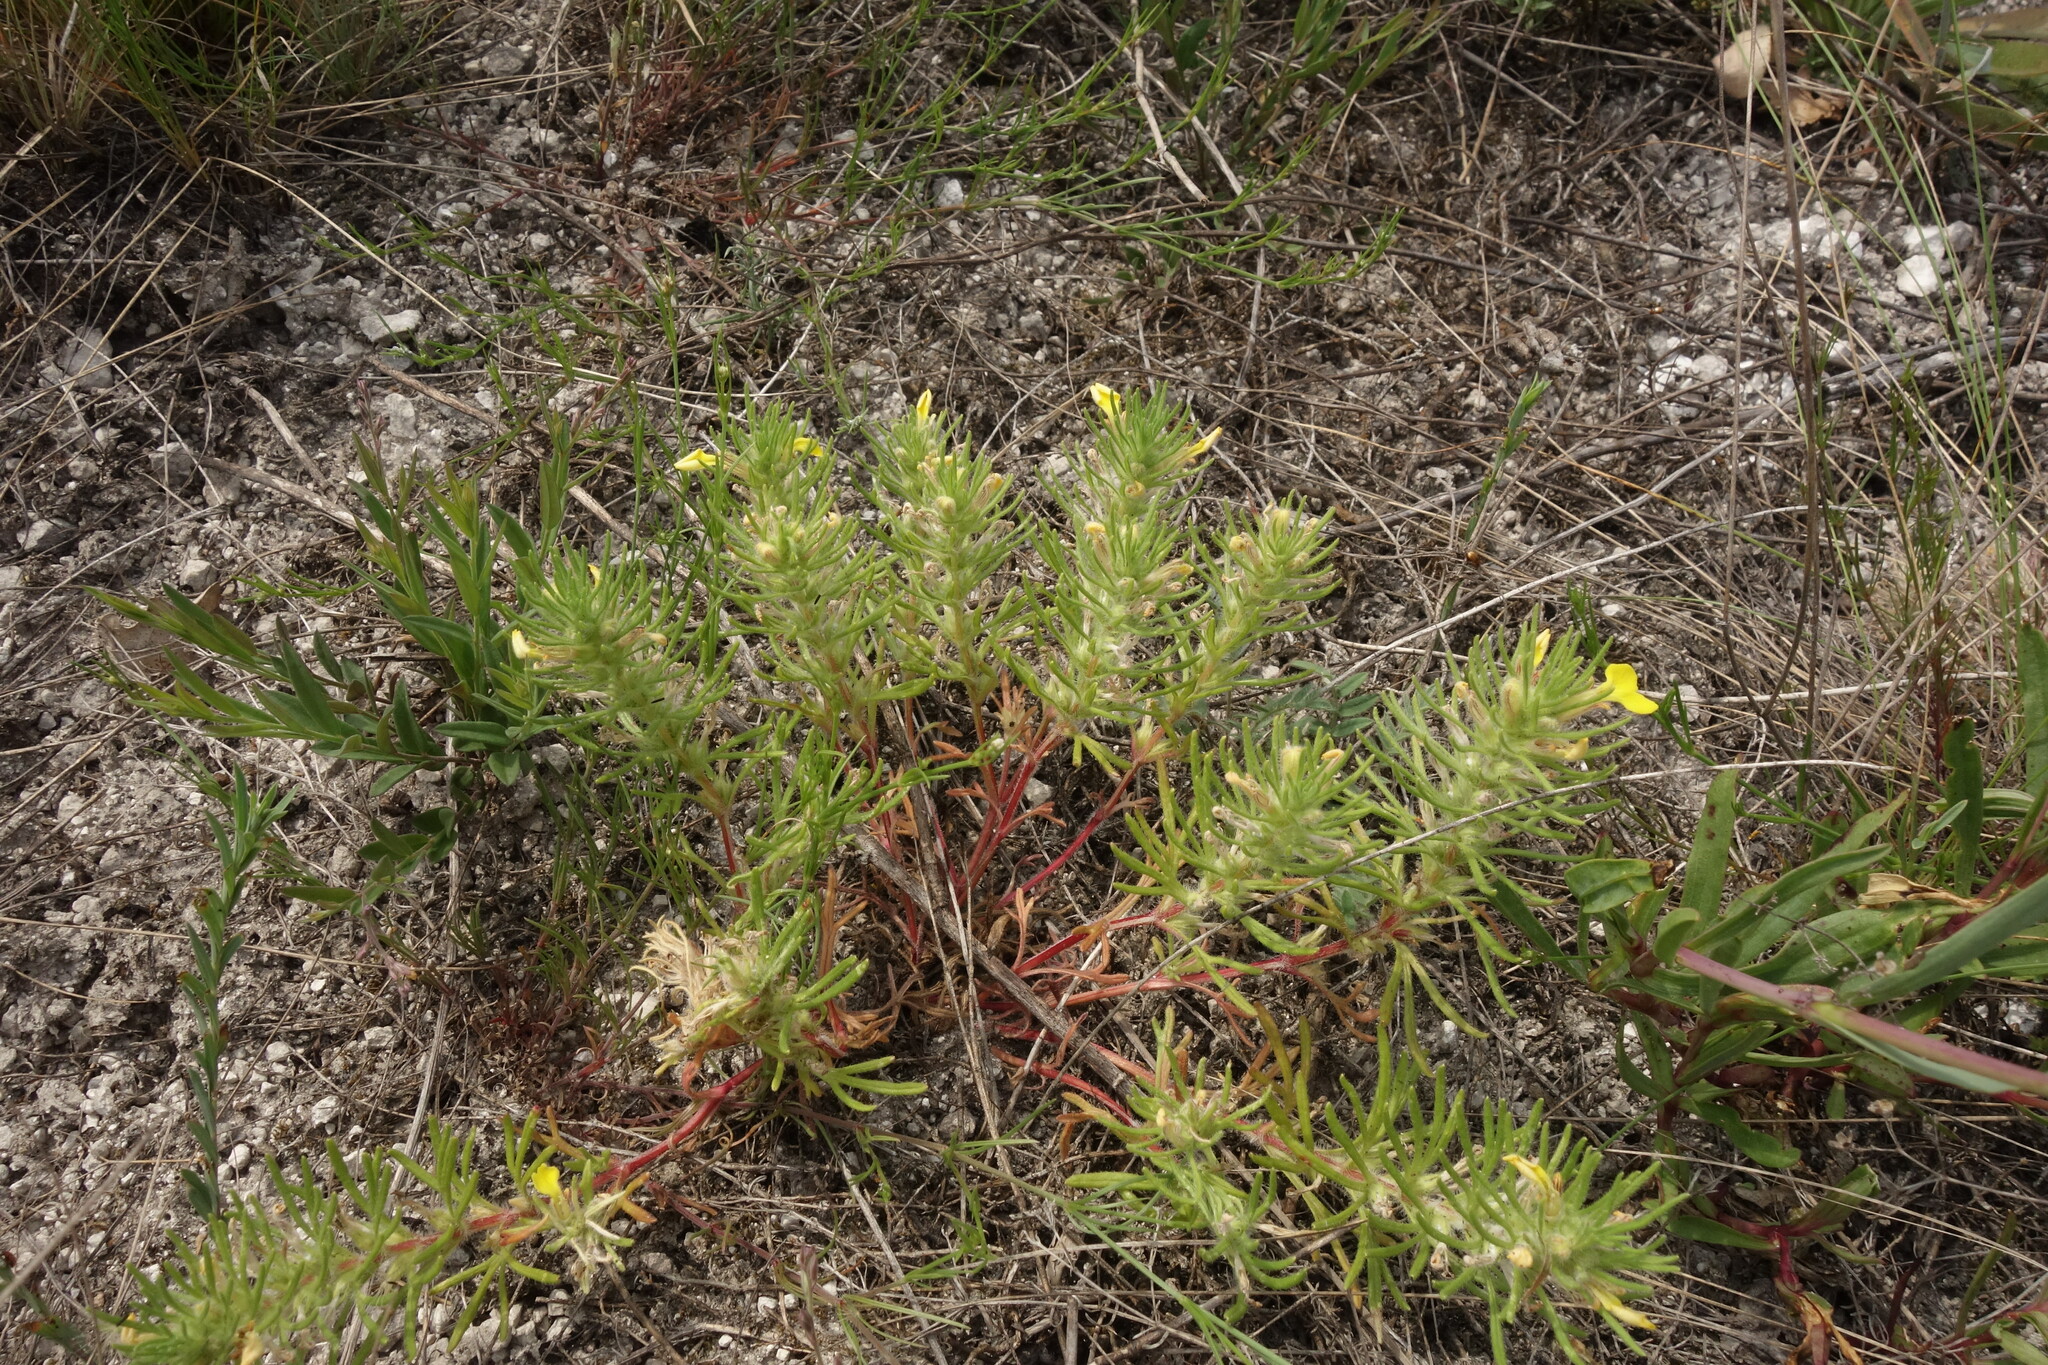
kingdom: Plantae
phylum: Tracheophyta
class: Magnoliopsida
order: Lamiales
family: Lamiaceae
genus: Ajuga
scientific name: Ajuga chamaepitys
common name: Ground-pine
